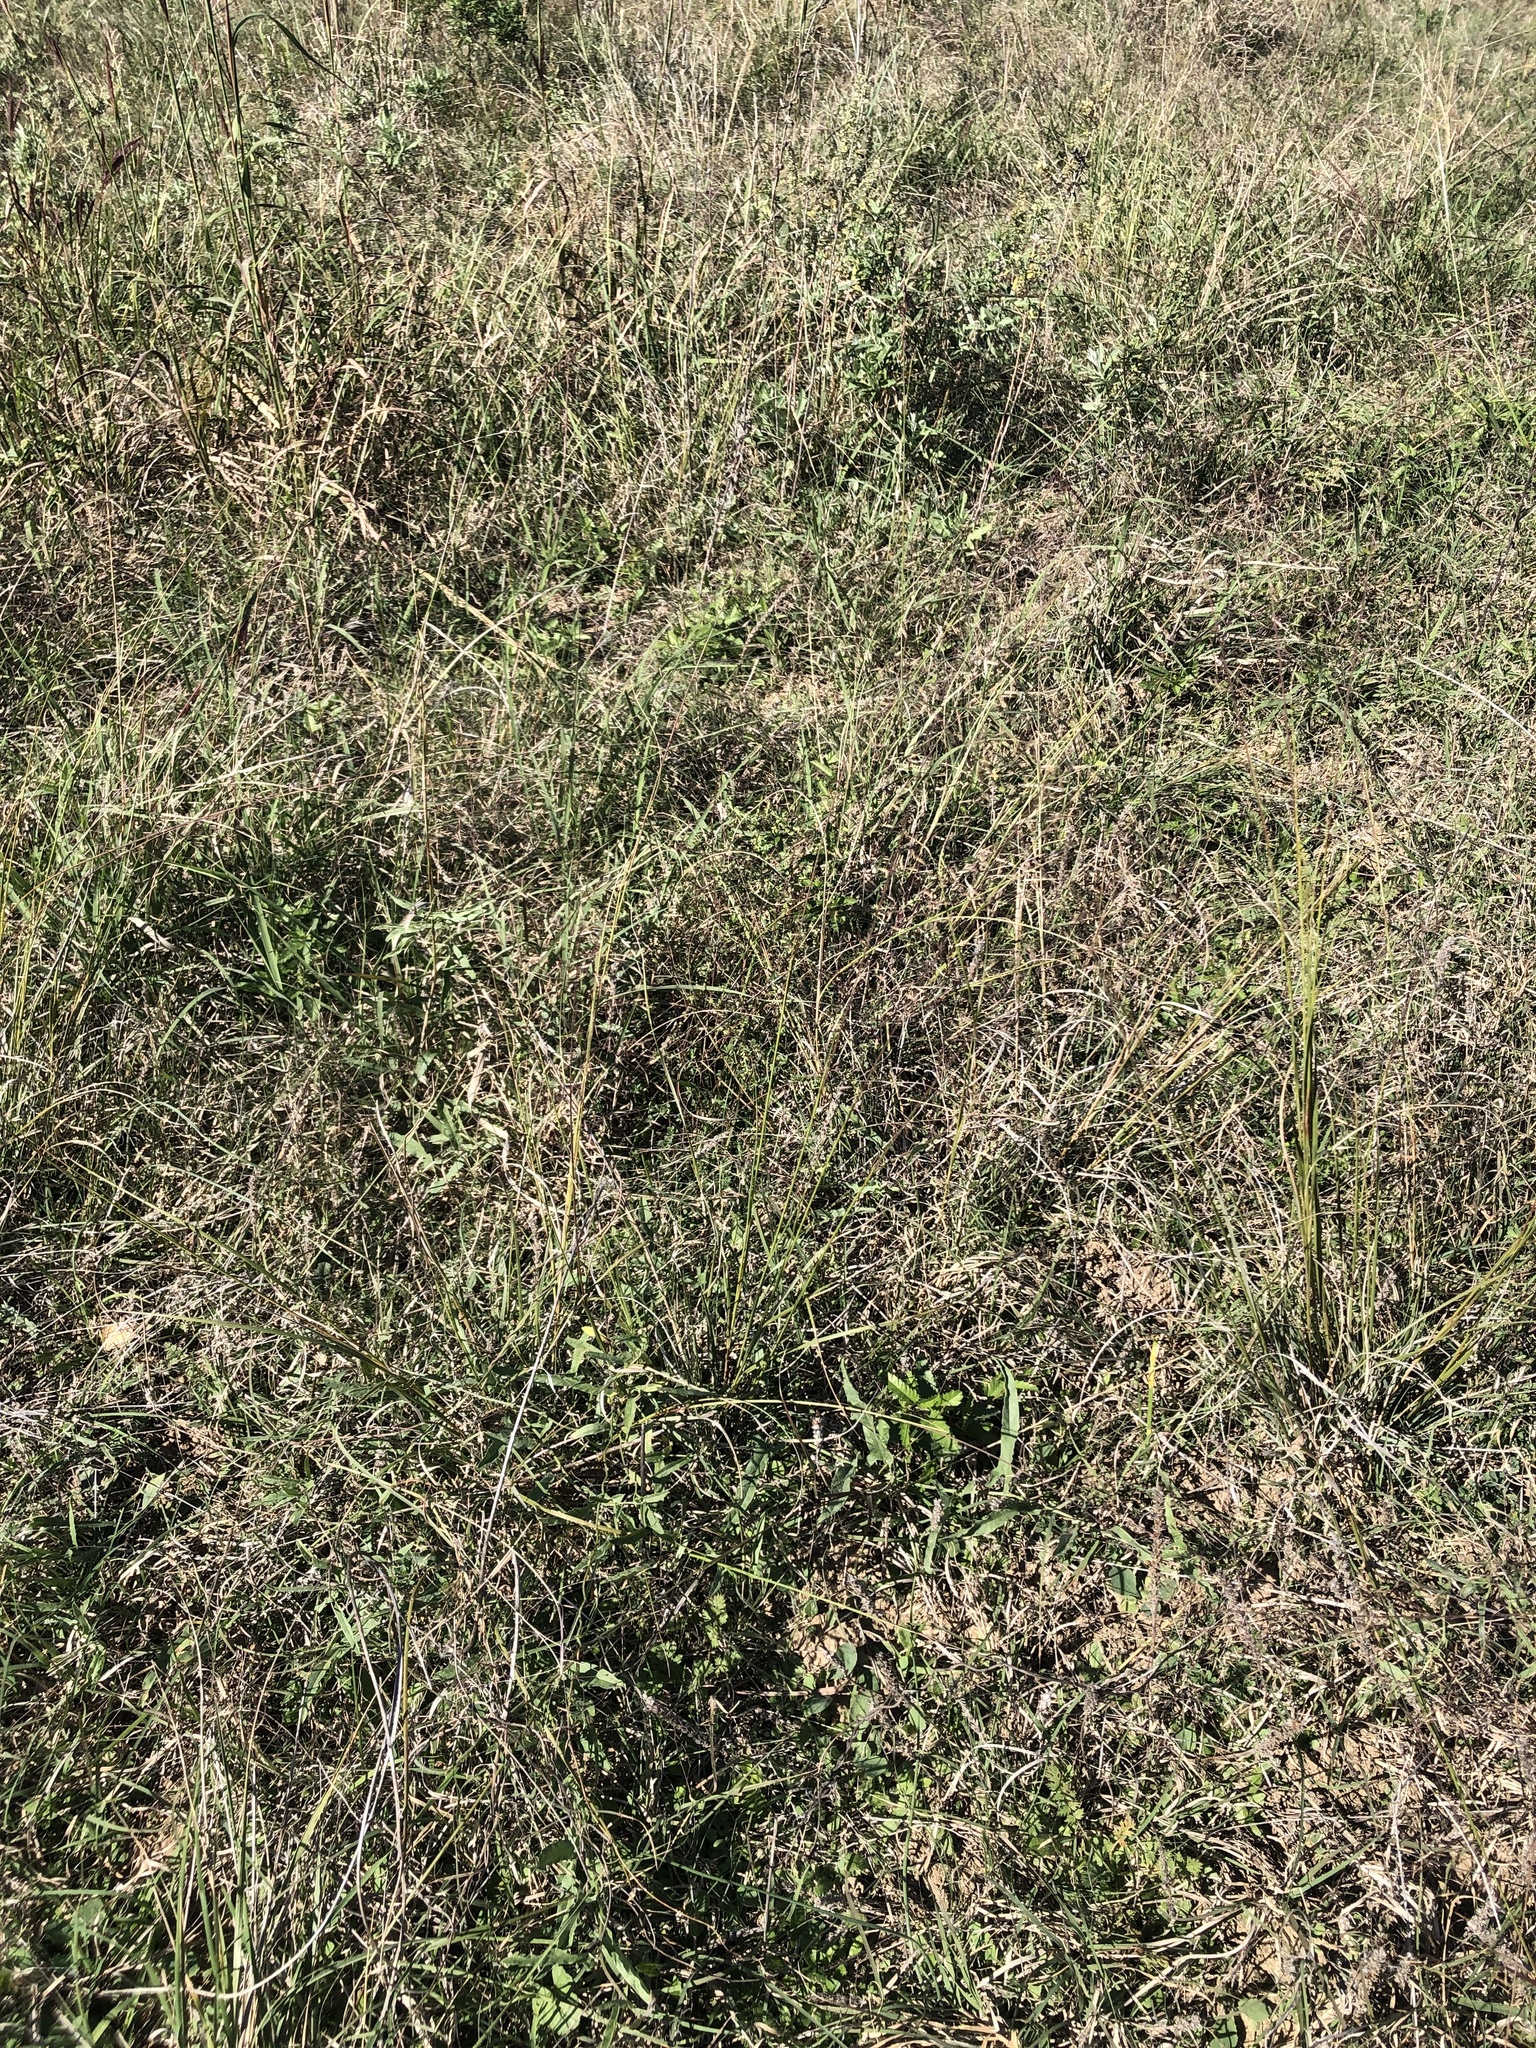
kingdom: Plantae
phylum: Tracheophyta
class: Liliopsida
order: Poales
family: Poaceae
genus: Muhlenbergia
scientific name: Muhlenbergia reverchonii
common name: Seep muhly
